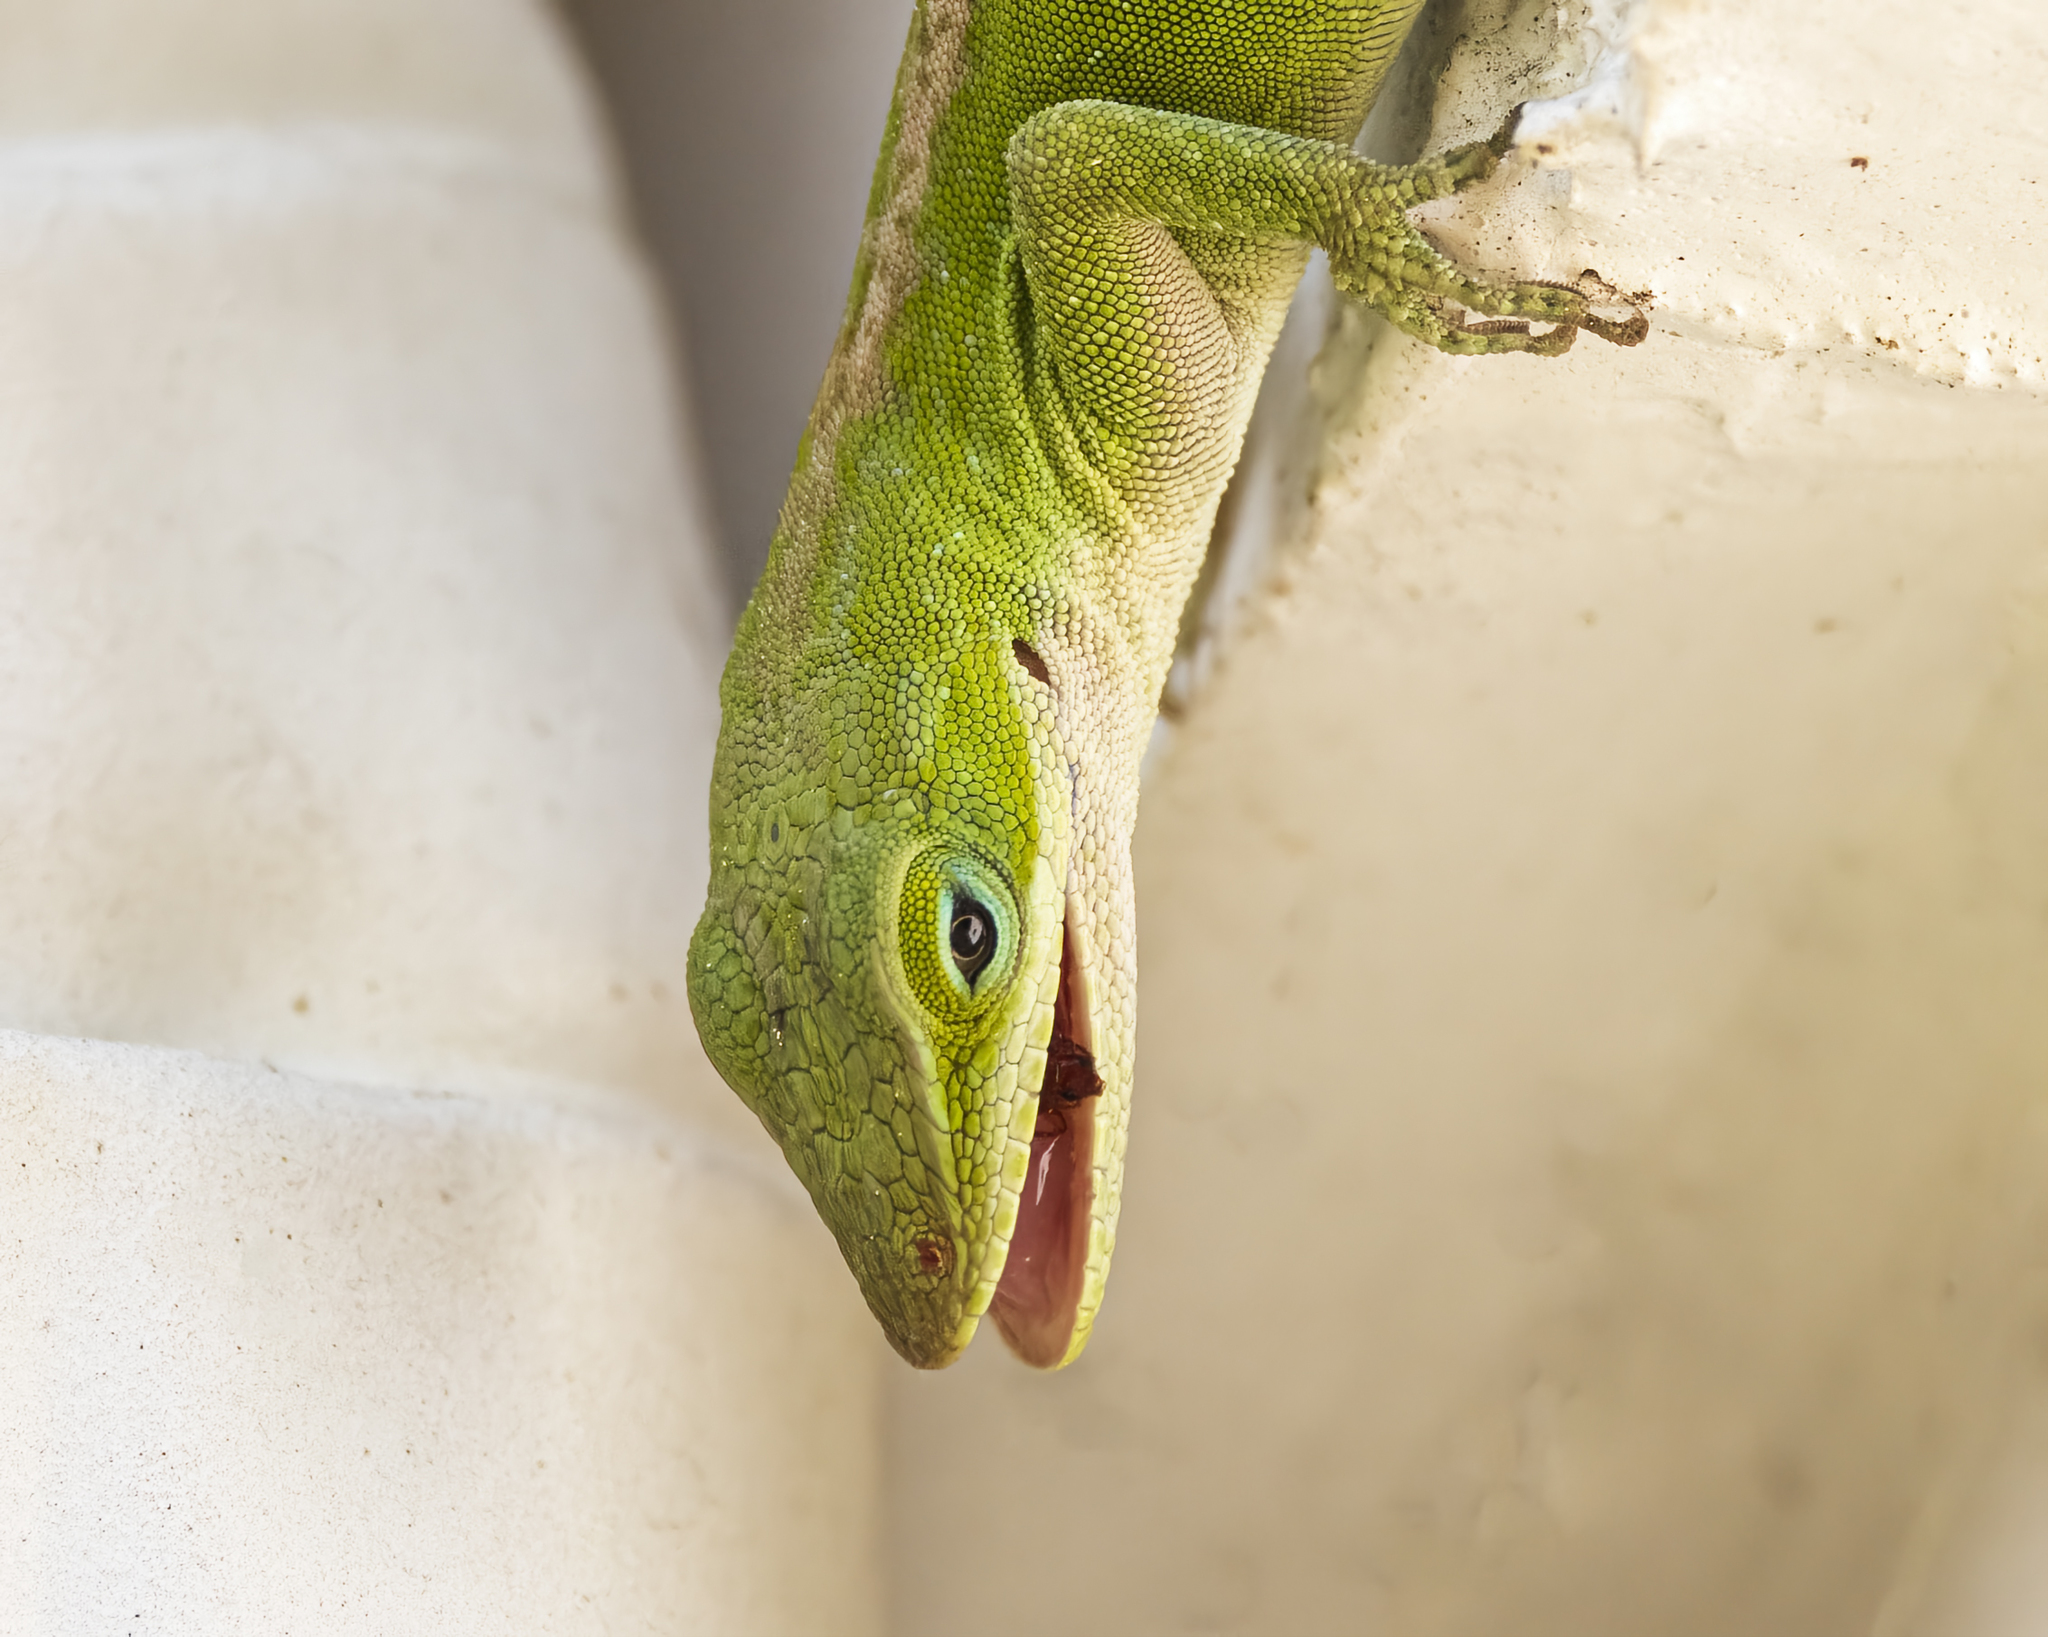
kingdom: Animalia
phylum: Chordata
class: Squamata
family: Dactyloidae
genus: Anolis
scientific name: Anolis carolinensis
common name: Green anole
